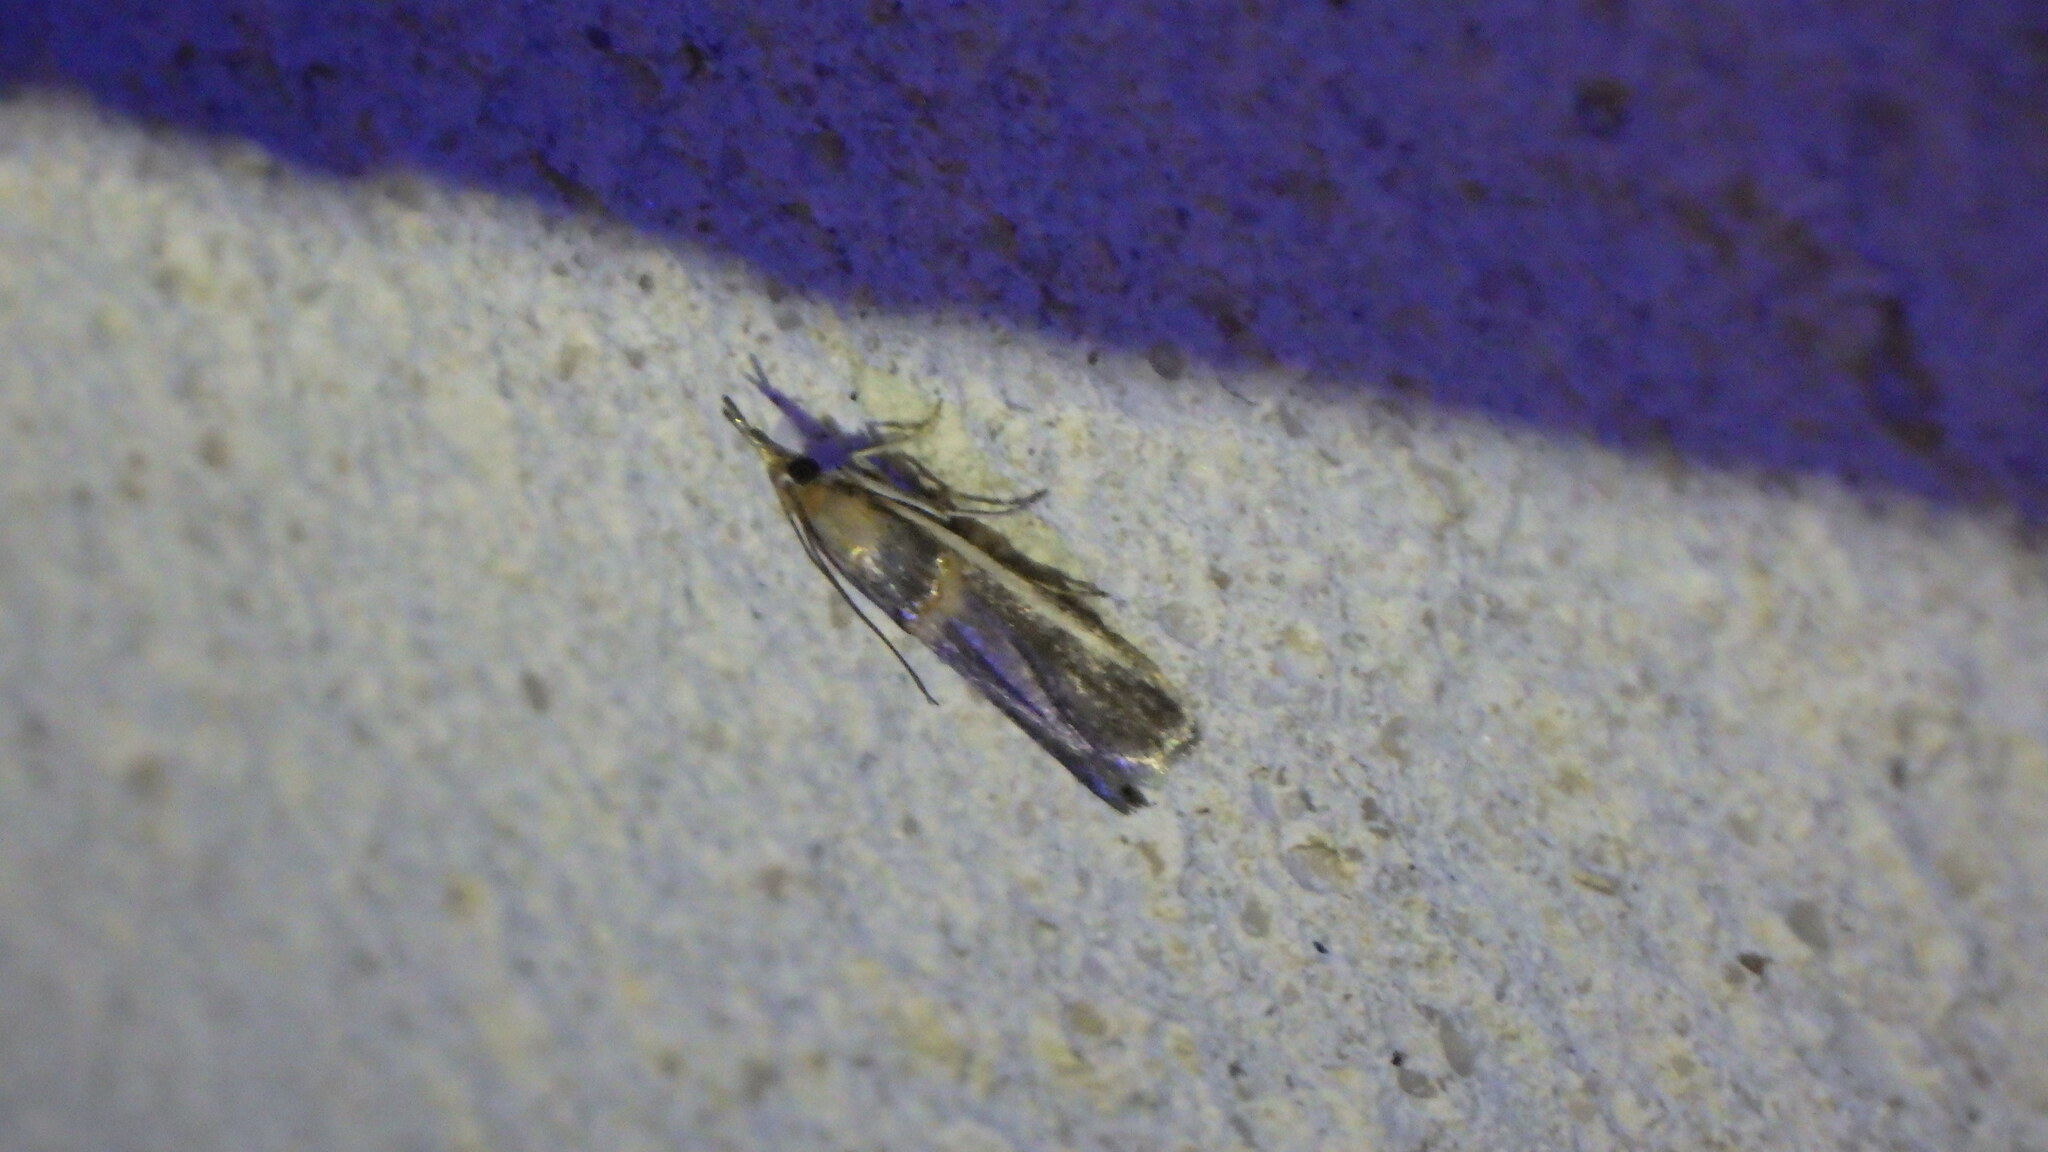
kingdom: Animalia
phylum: Arthropoda
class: Insecta
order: Lepidoptera
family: Pyralidae
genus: Etiella
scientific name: Etiella zinckenella
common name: Gold-banded etiella moth
